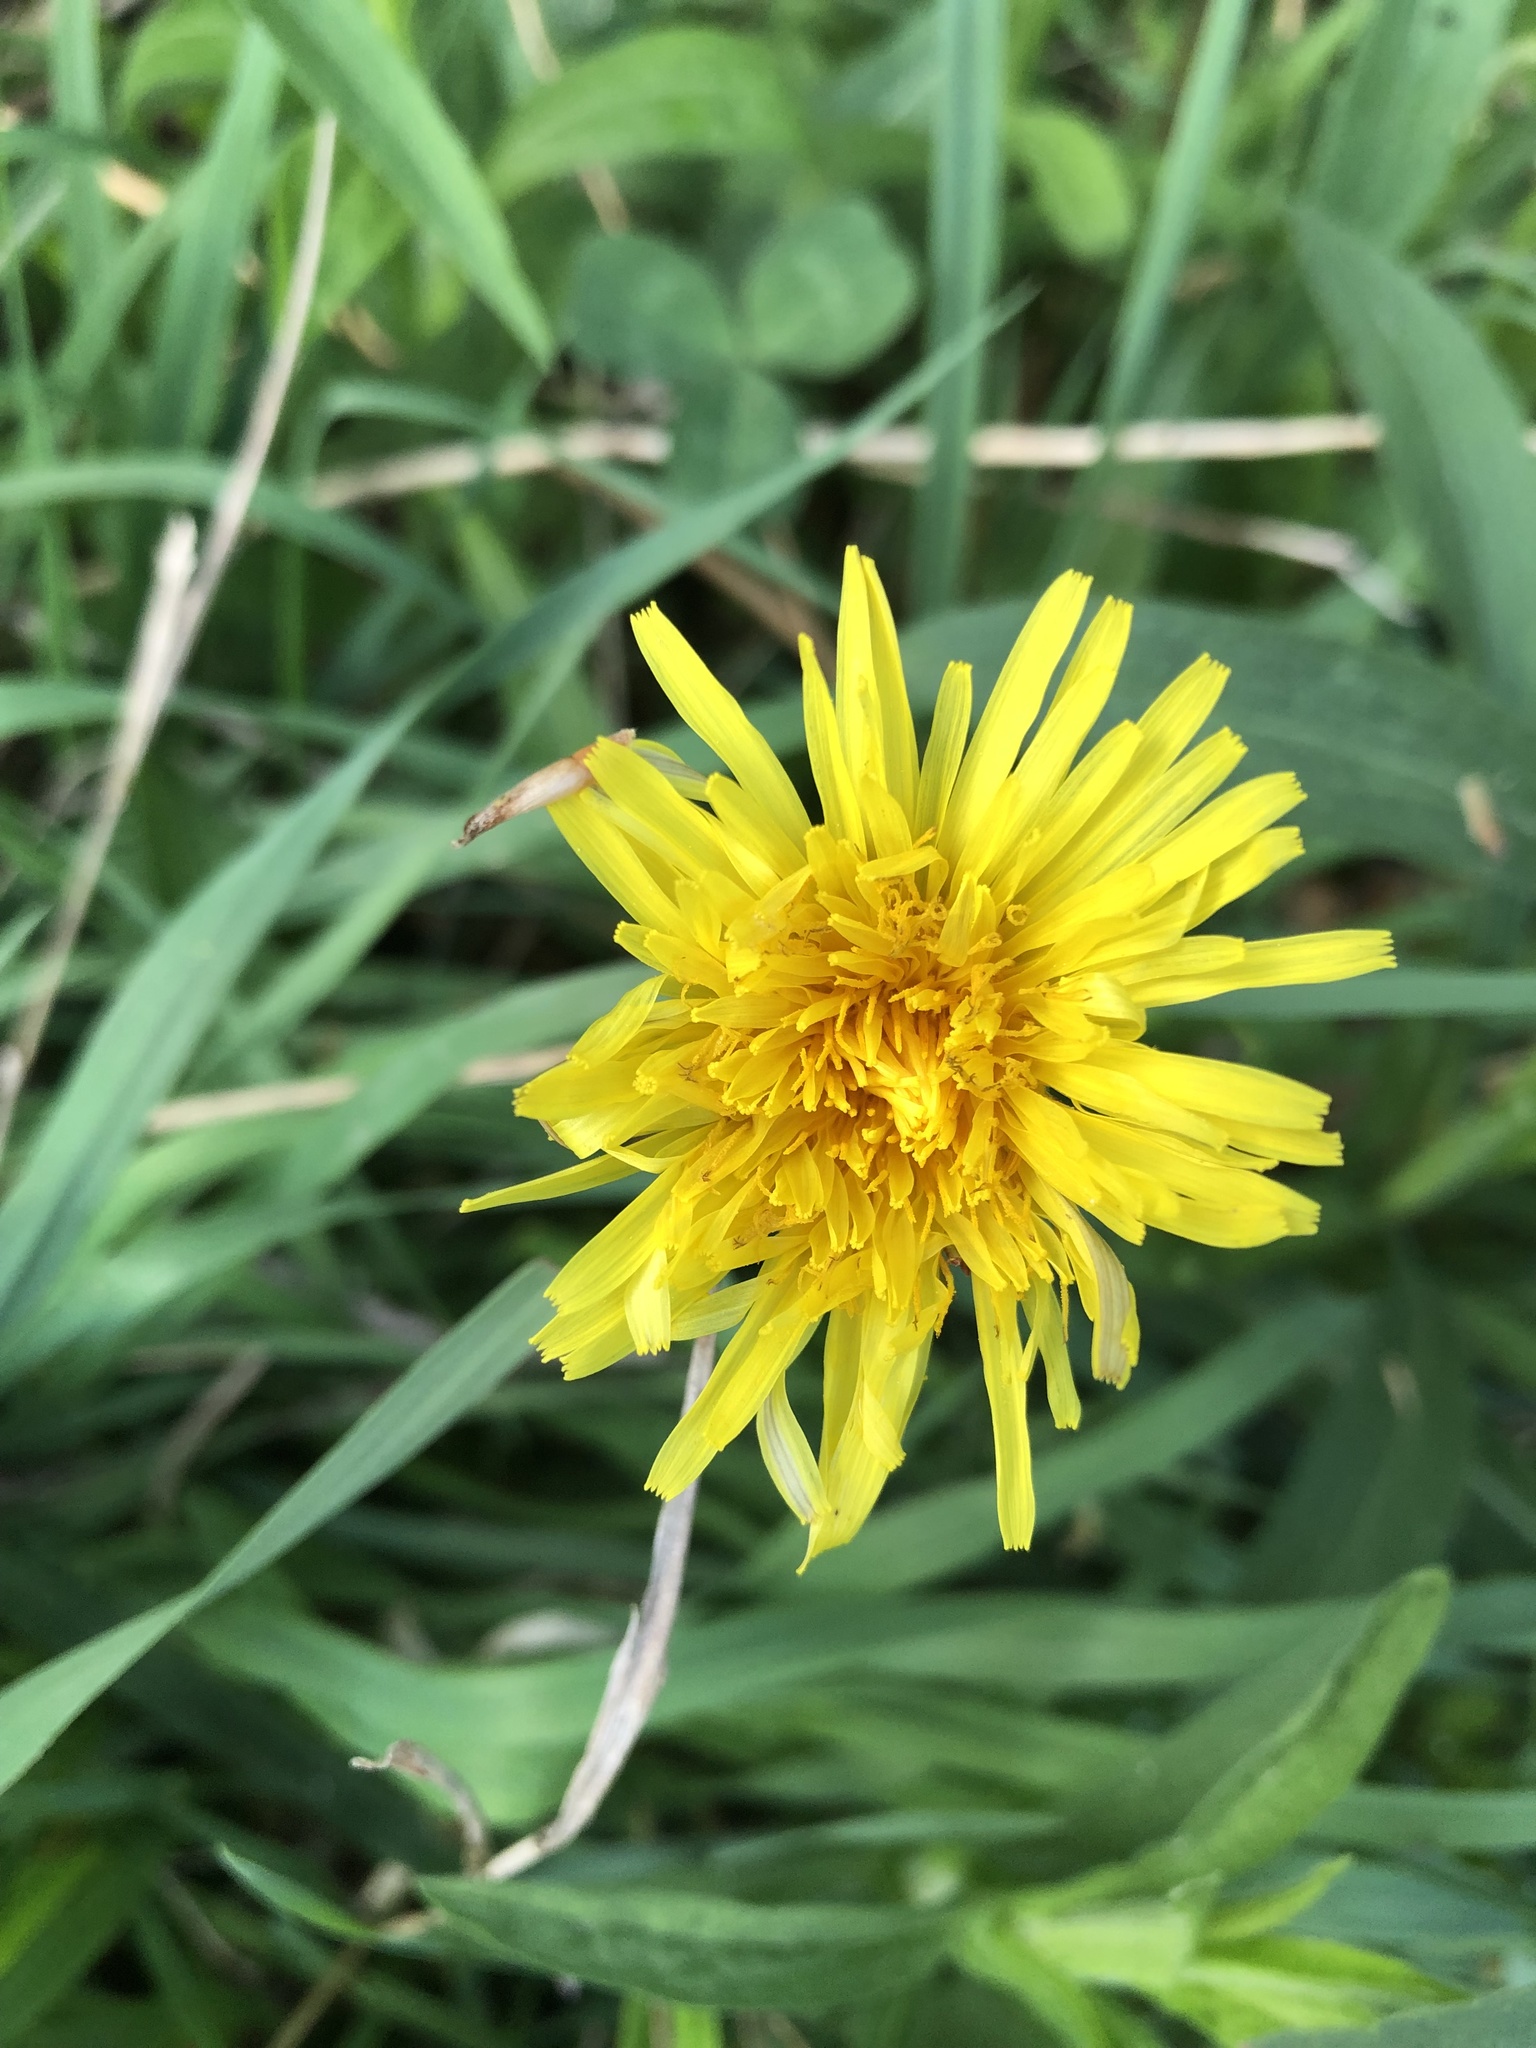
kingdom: Plantae
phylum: Tracheophyta
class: Magnoliopsida
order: Asterales
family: Asteraceae
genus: Taraxacum
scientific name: Taraxacum officinale
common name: Common dandelion
